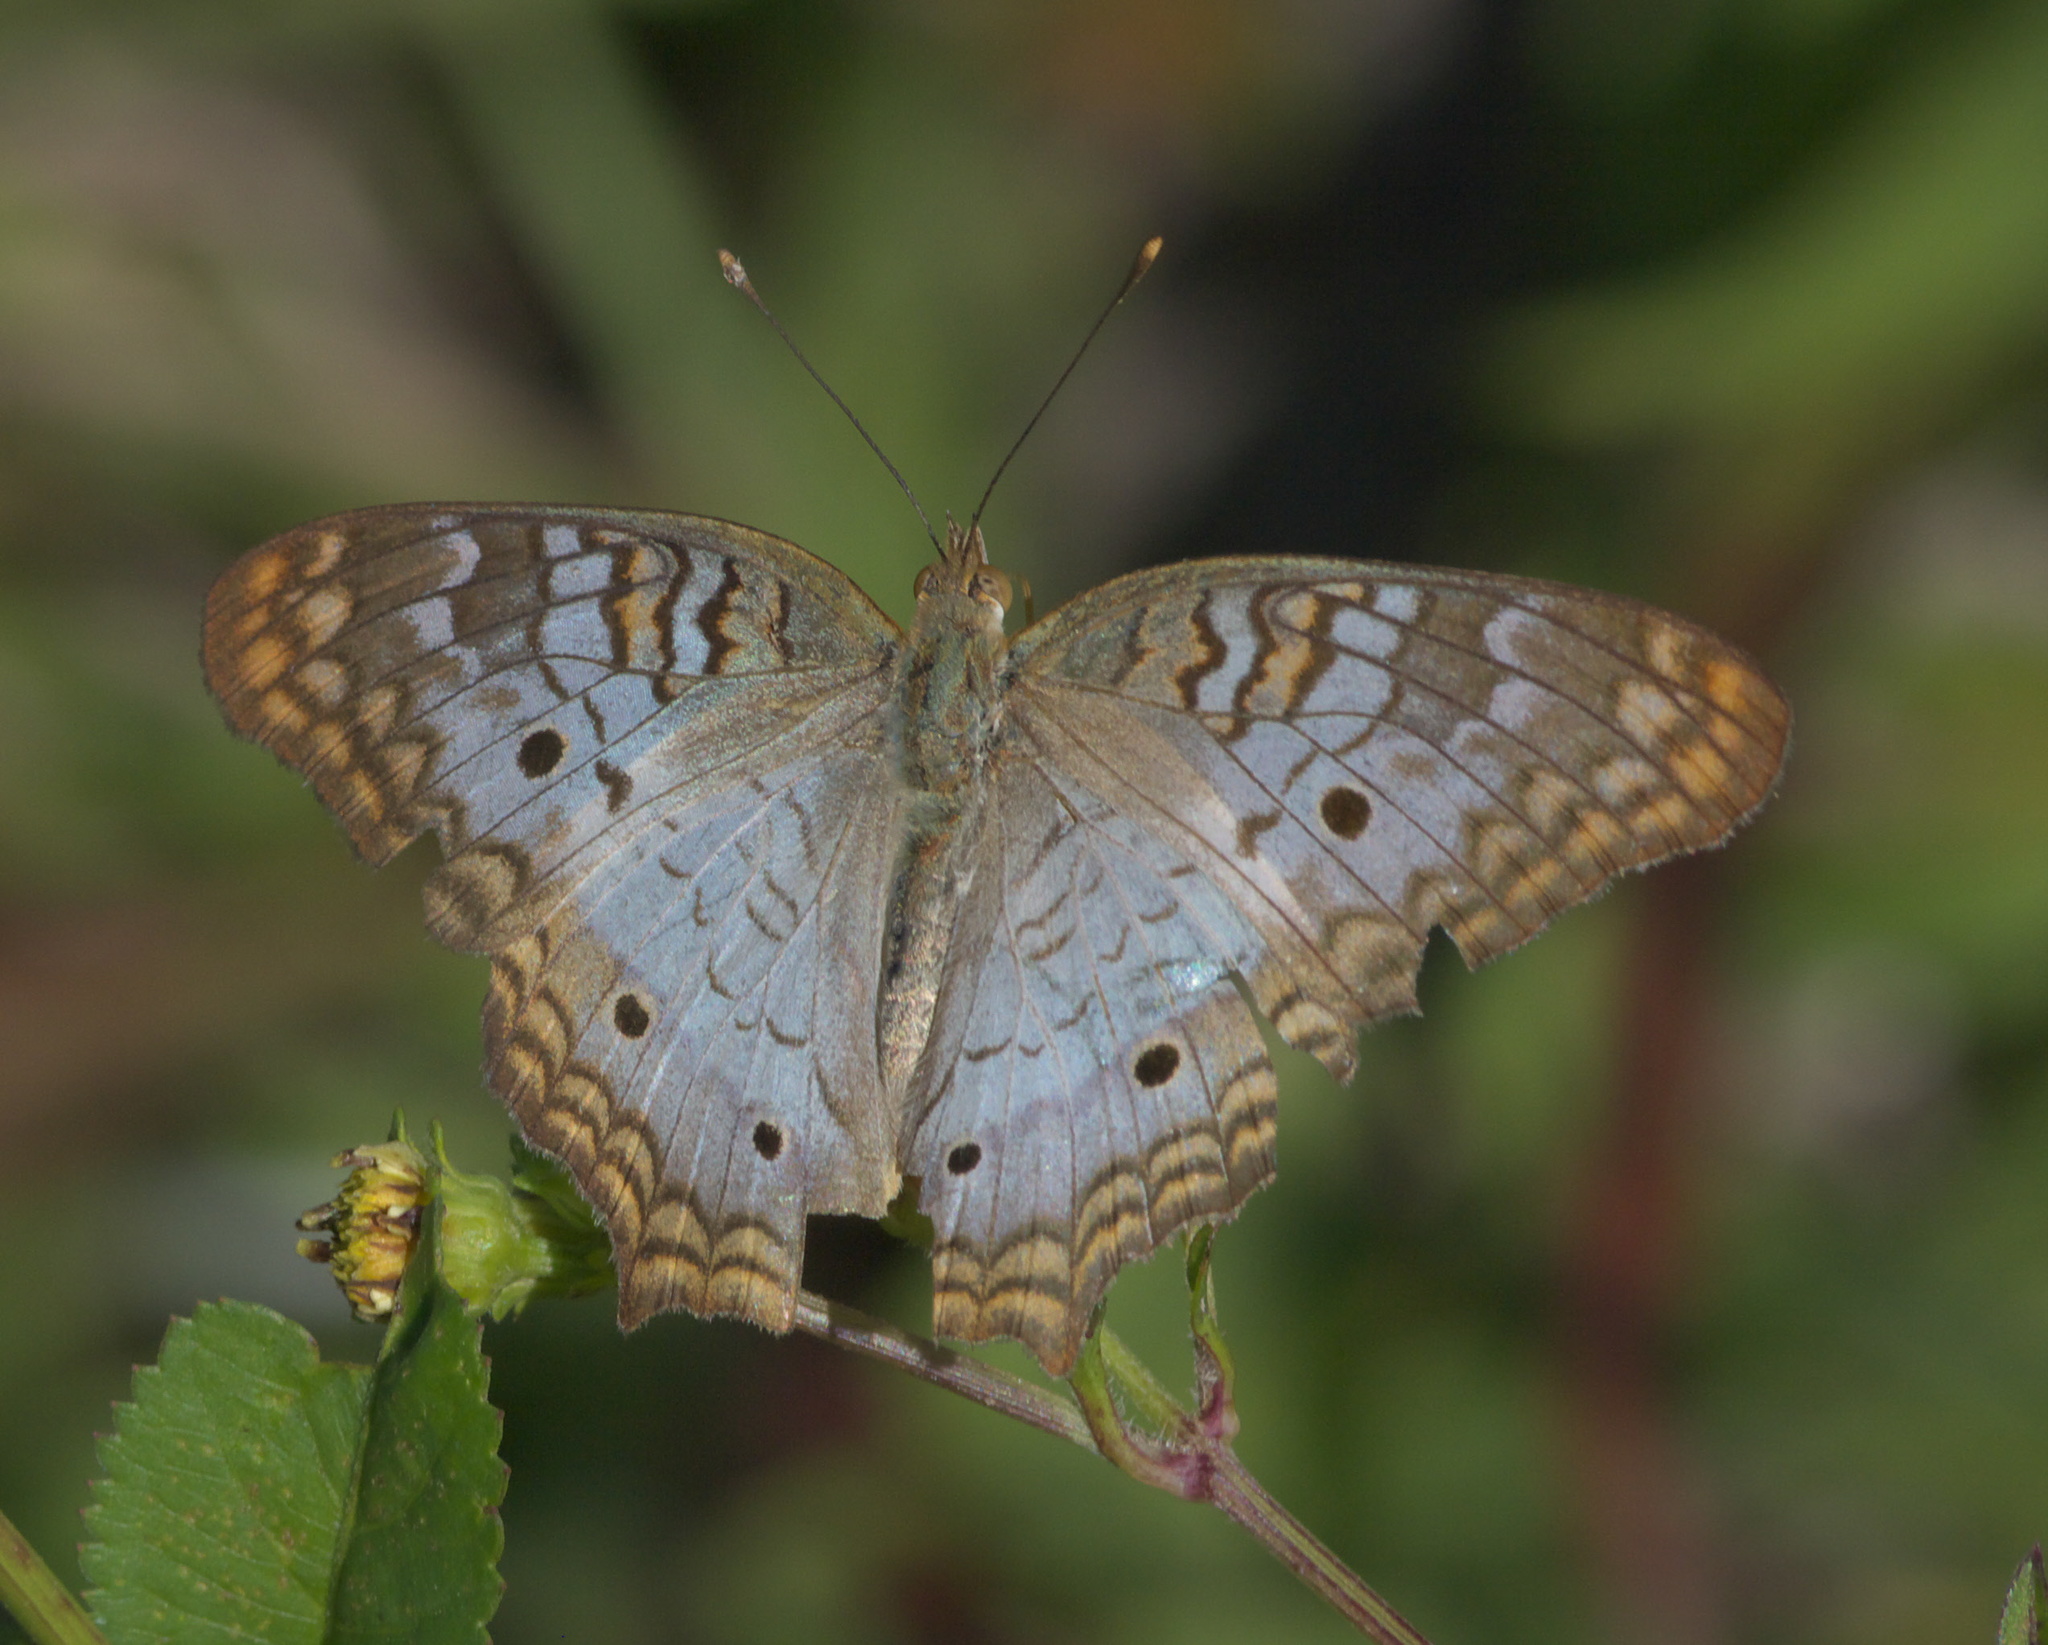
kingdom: Animalia
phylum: Arthropoda
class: Insecta
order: Lepidoptera
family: Nymphalidae
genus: Anartia
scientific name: Anartia jatrophae
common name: White peacock
